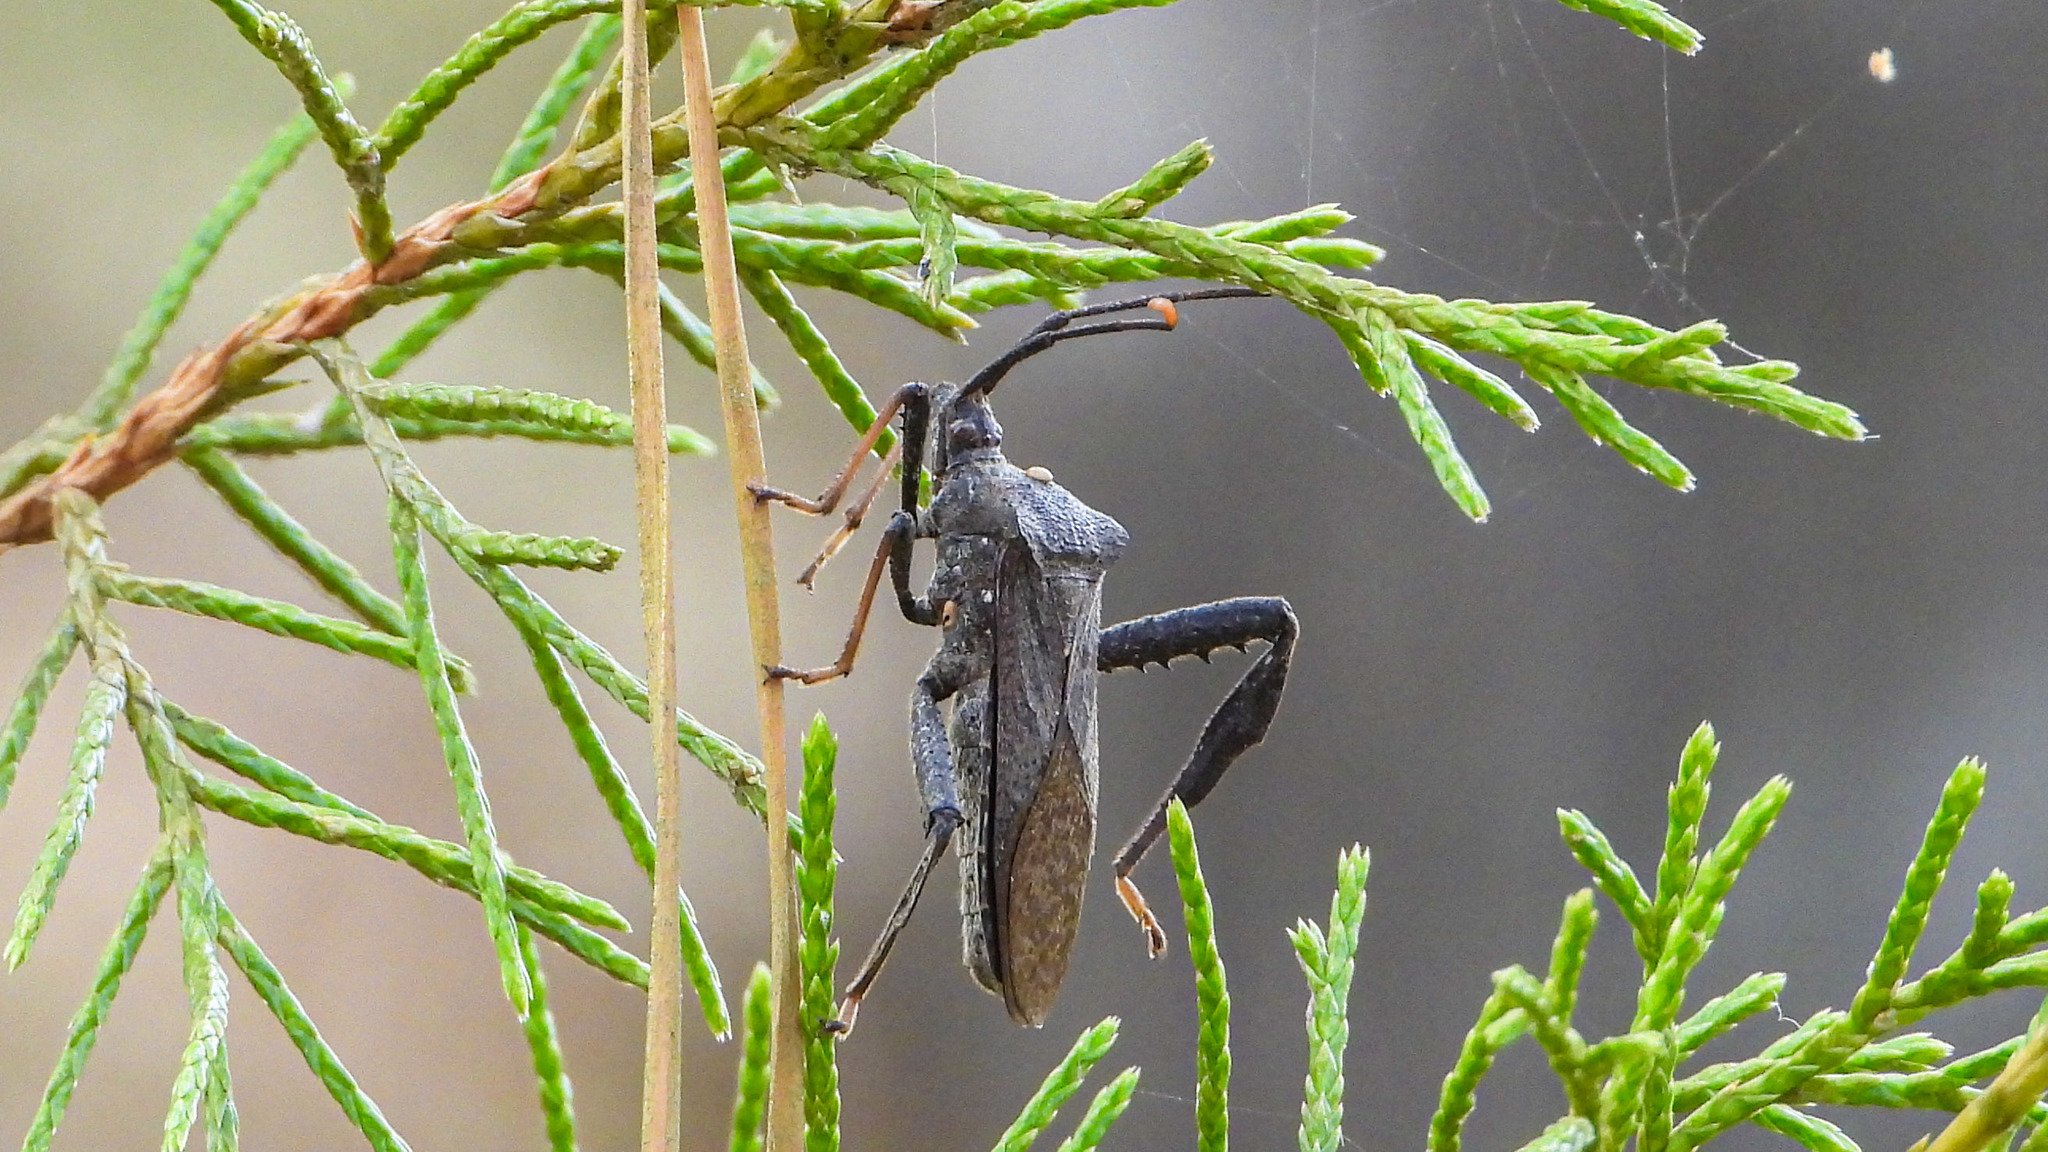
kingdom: Animalia
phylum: Arthropoda
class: Insecta
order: Hemiptera
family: Coreidae
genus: Acanthocephala
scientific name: Acanthocephala terminalis
